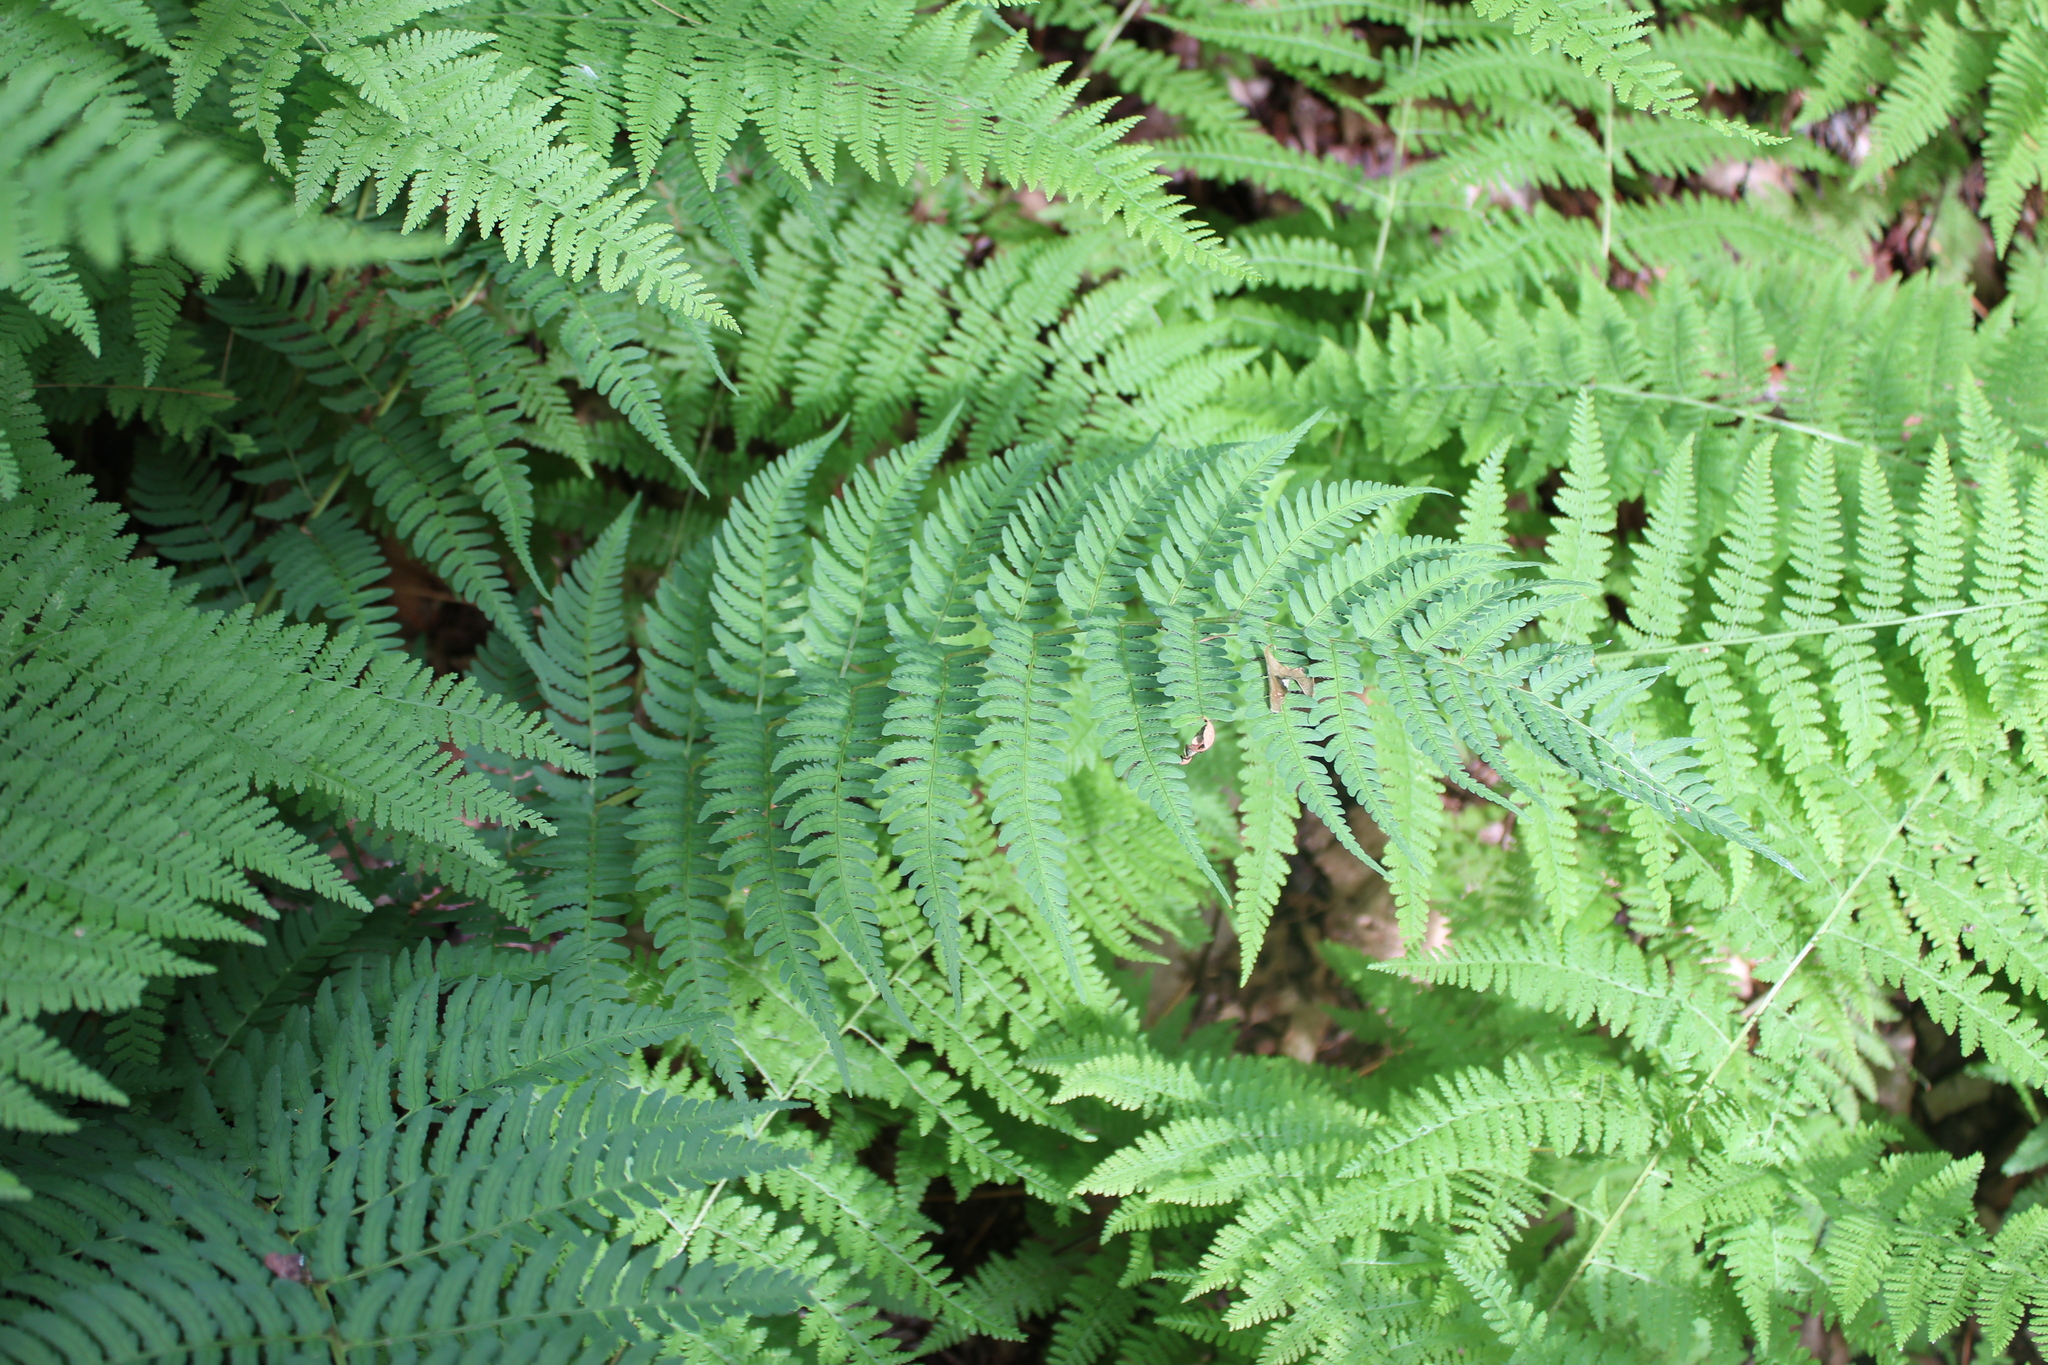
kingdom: Plantae
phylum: Tracheophyta
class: Polypodiopsida
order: Polypodiales
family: Dryopteridaceae
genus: Dryopteris
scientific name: Dryopteris marginalis
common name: Marginal wood fern
